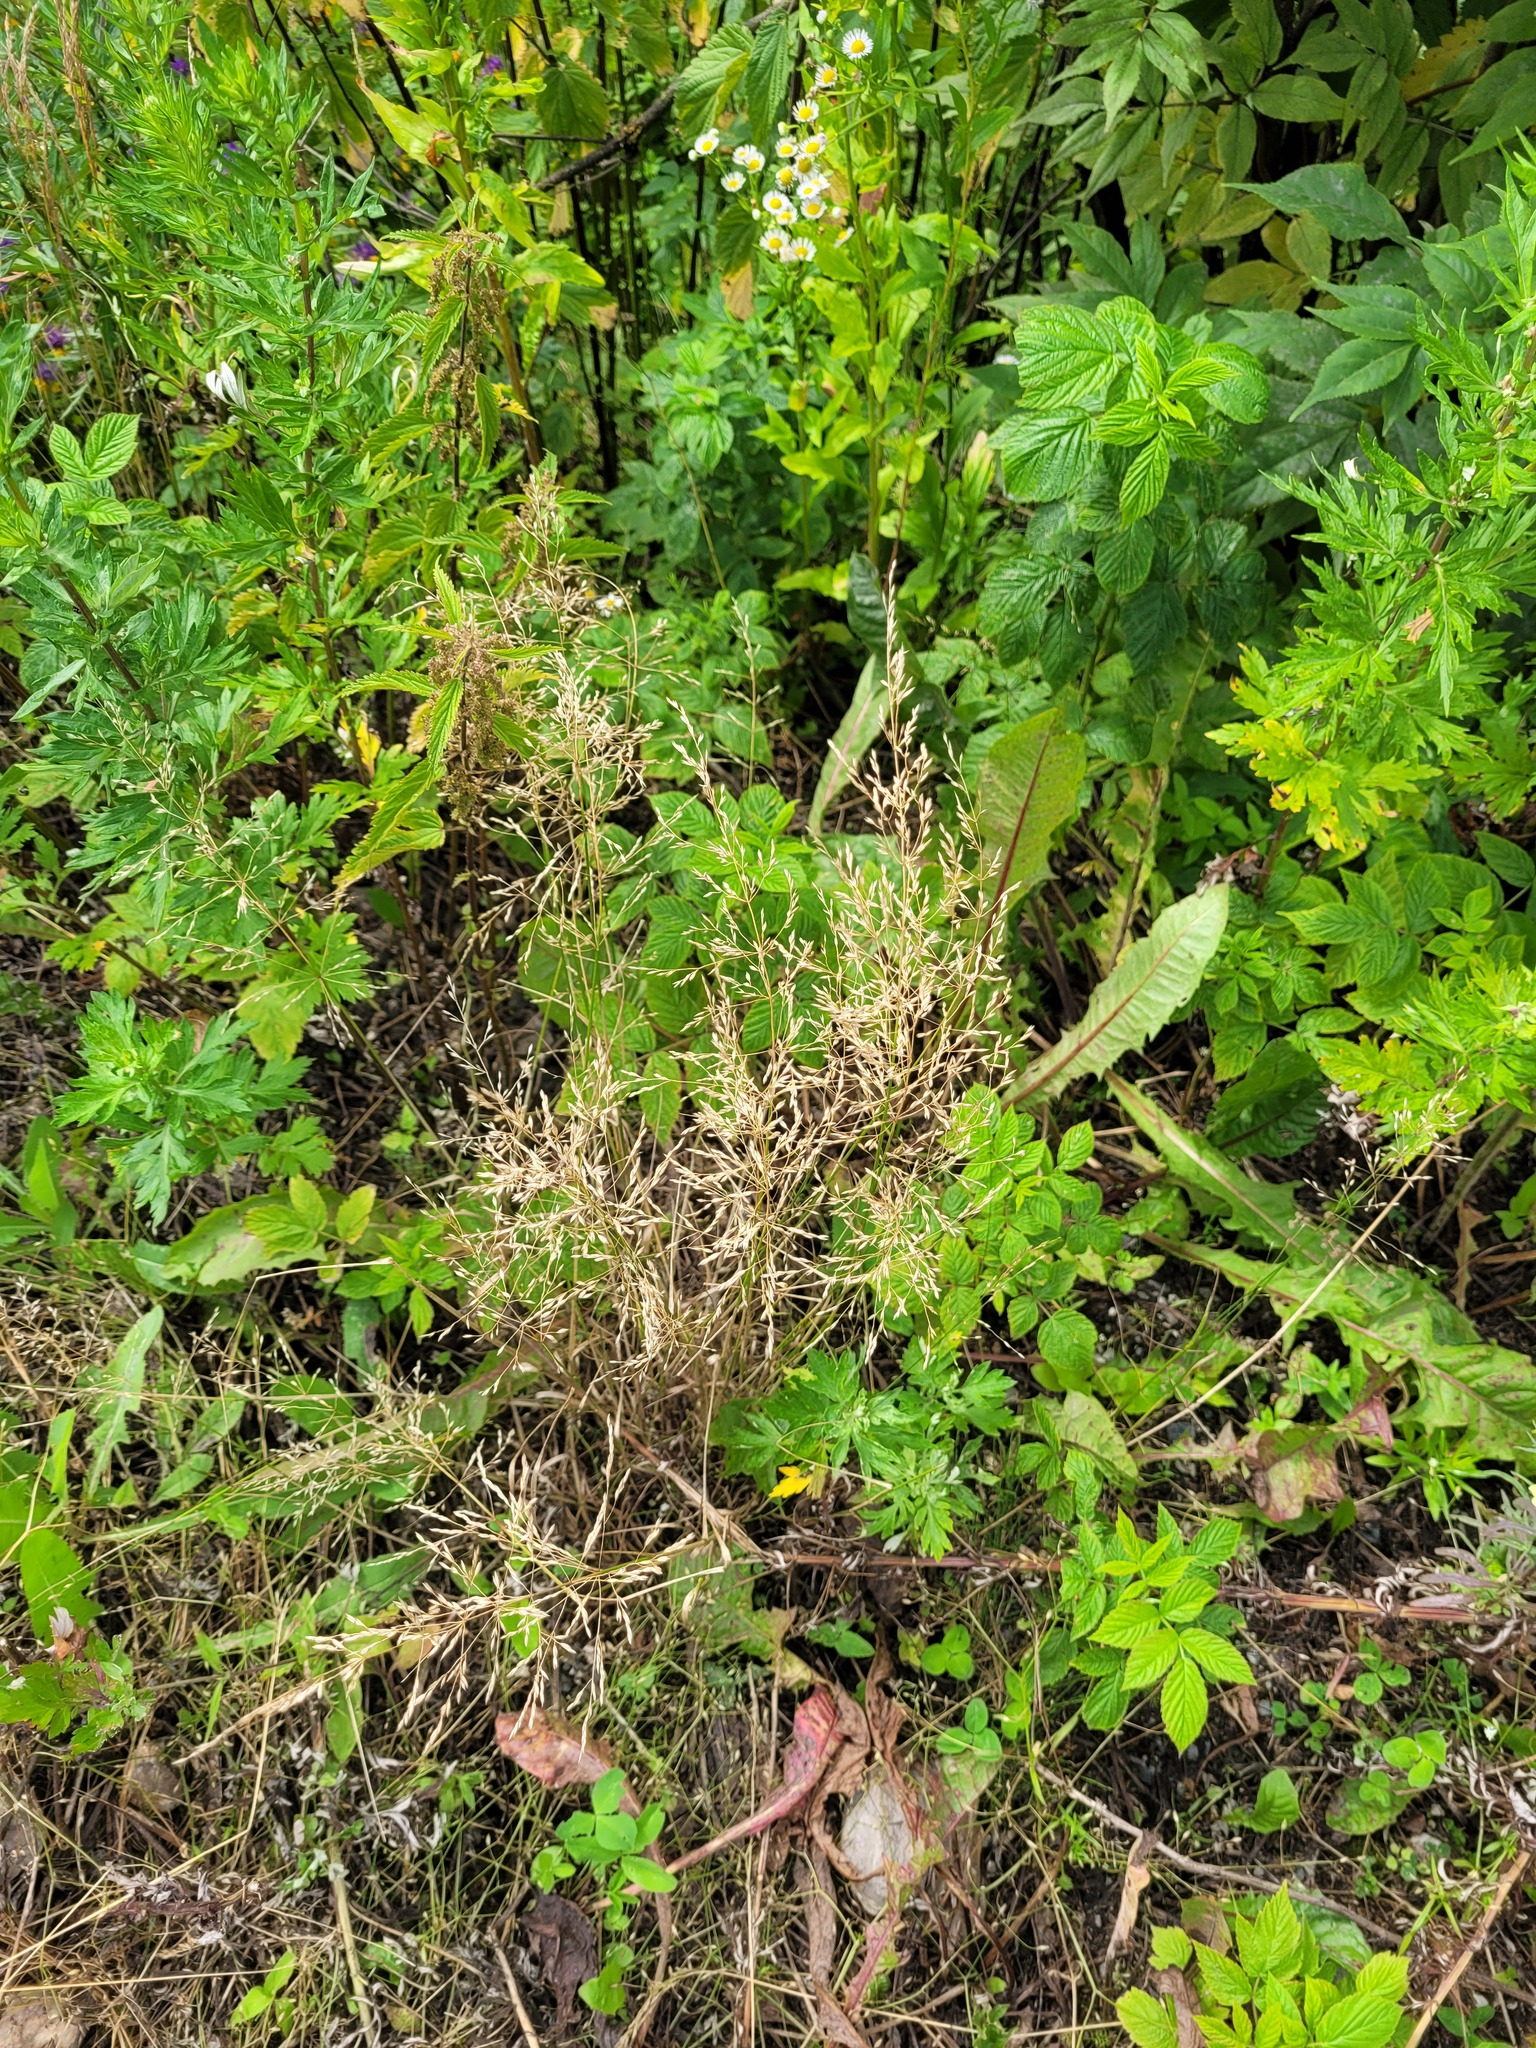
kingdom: Plantae
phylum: Tracheophyta
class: Liliopsida
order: Poales
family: Poaceae
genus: Poa
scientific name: Poa palustris
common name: Swamp meadow-grass
